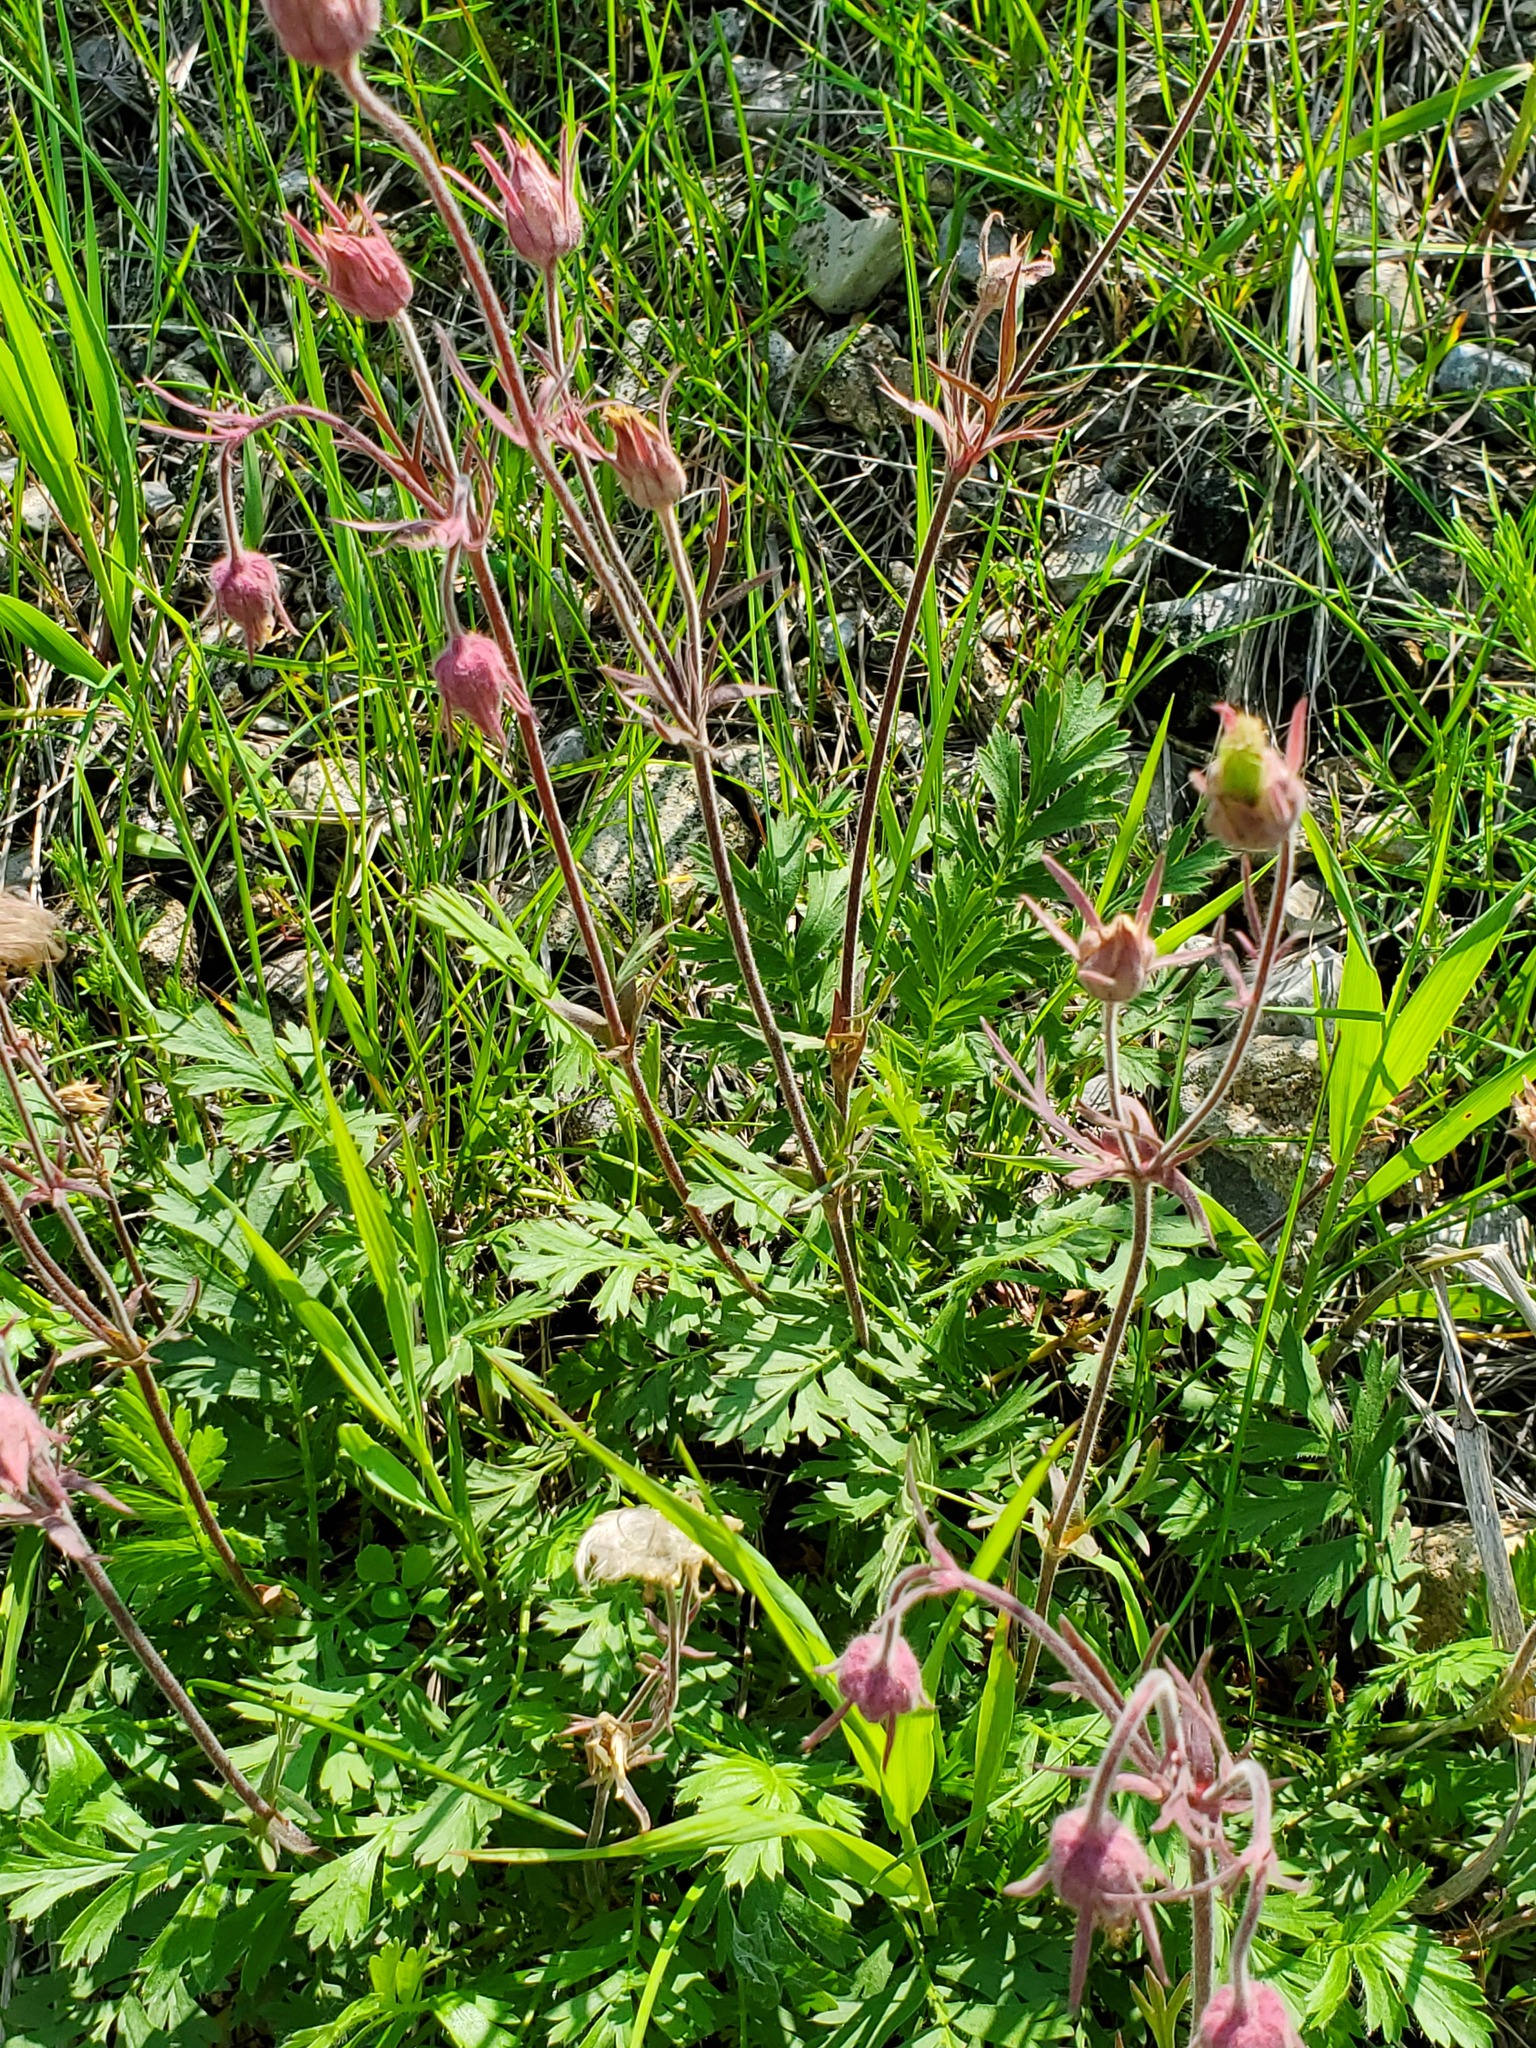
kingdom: Plantae
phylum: Tracheophyta
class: Magnoliopsida
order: Rosales
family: Rosaceae
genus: Geum
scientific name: Geum triflorum
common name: Old man's whiskers
